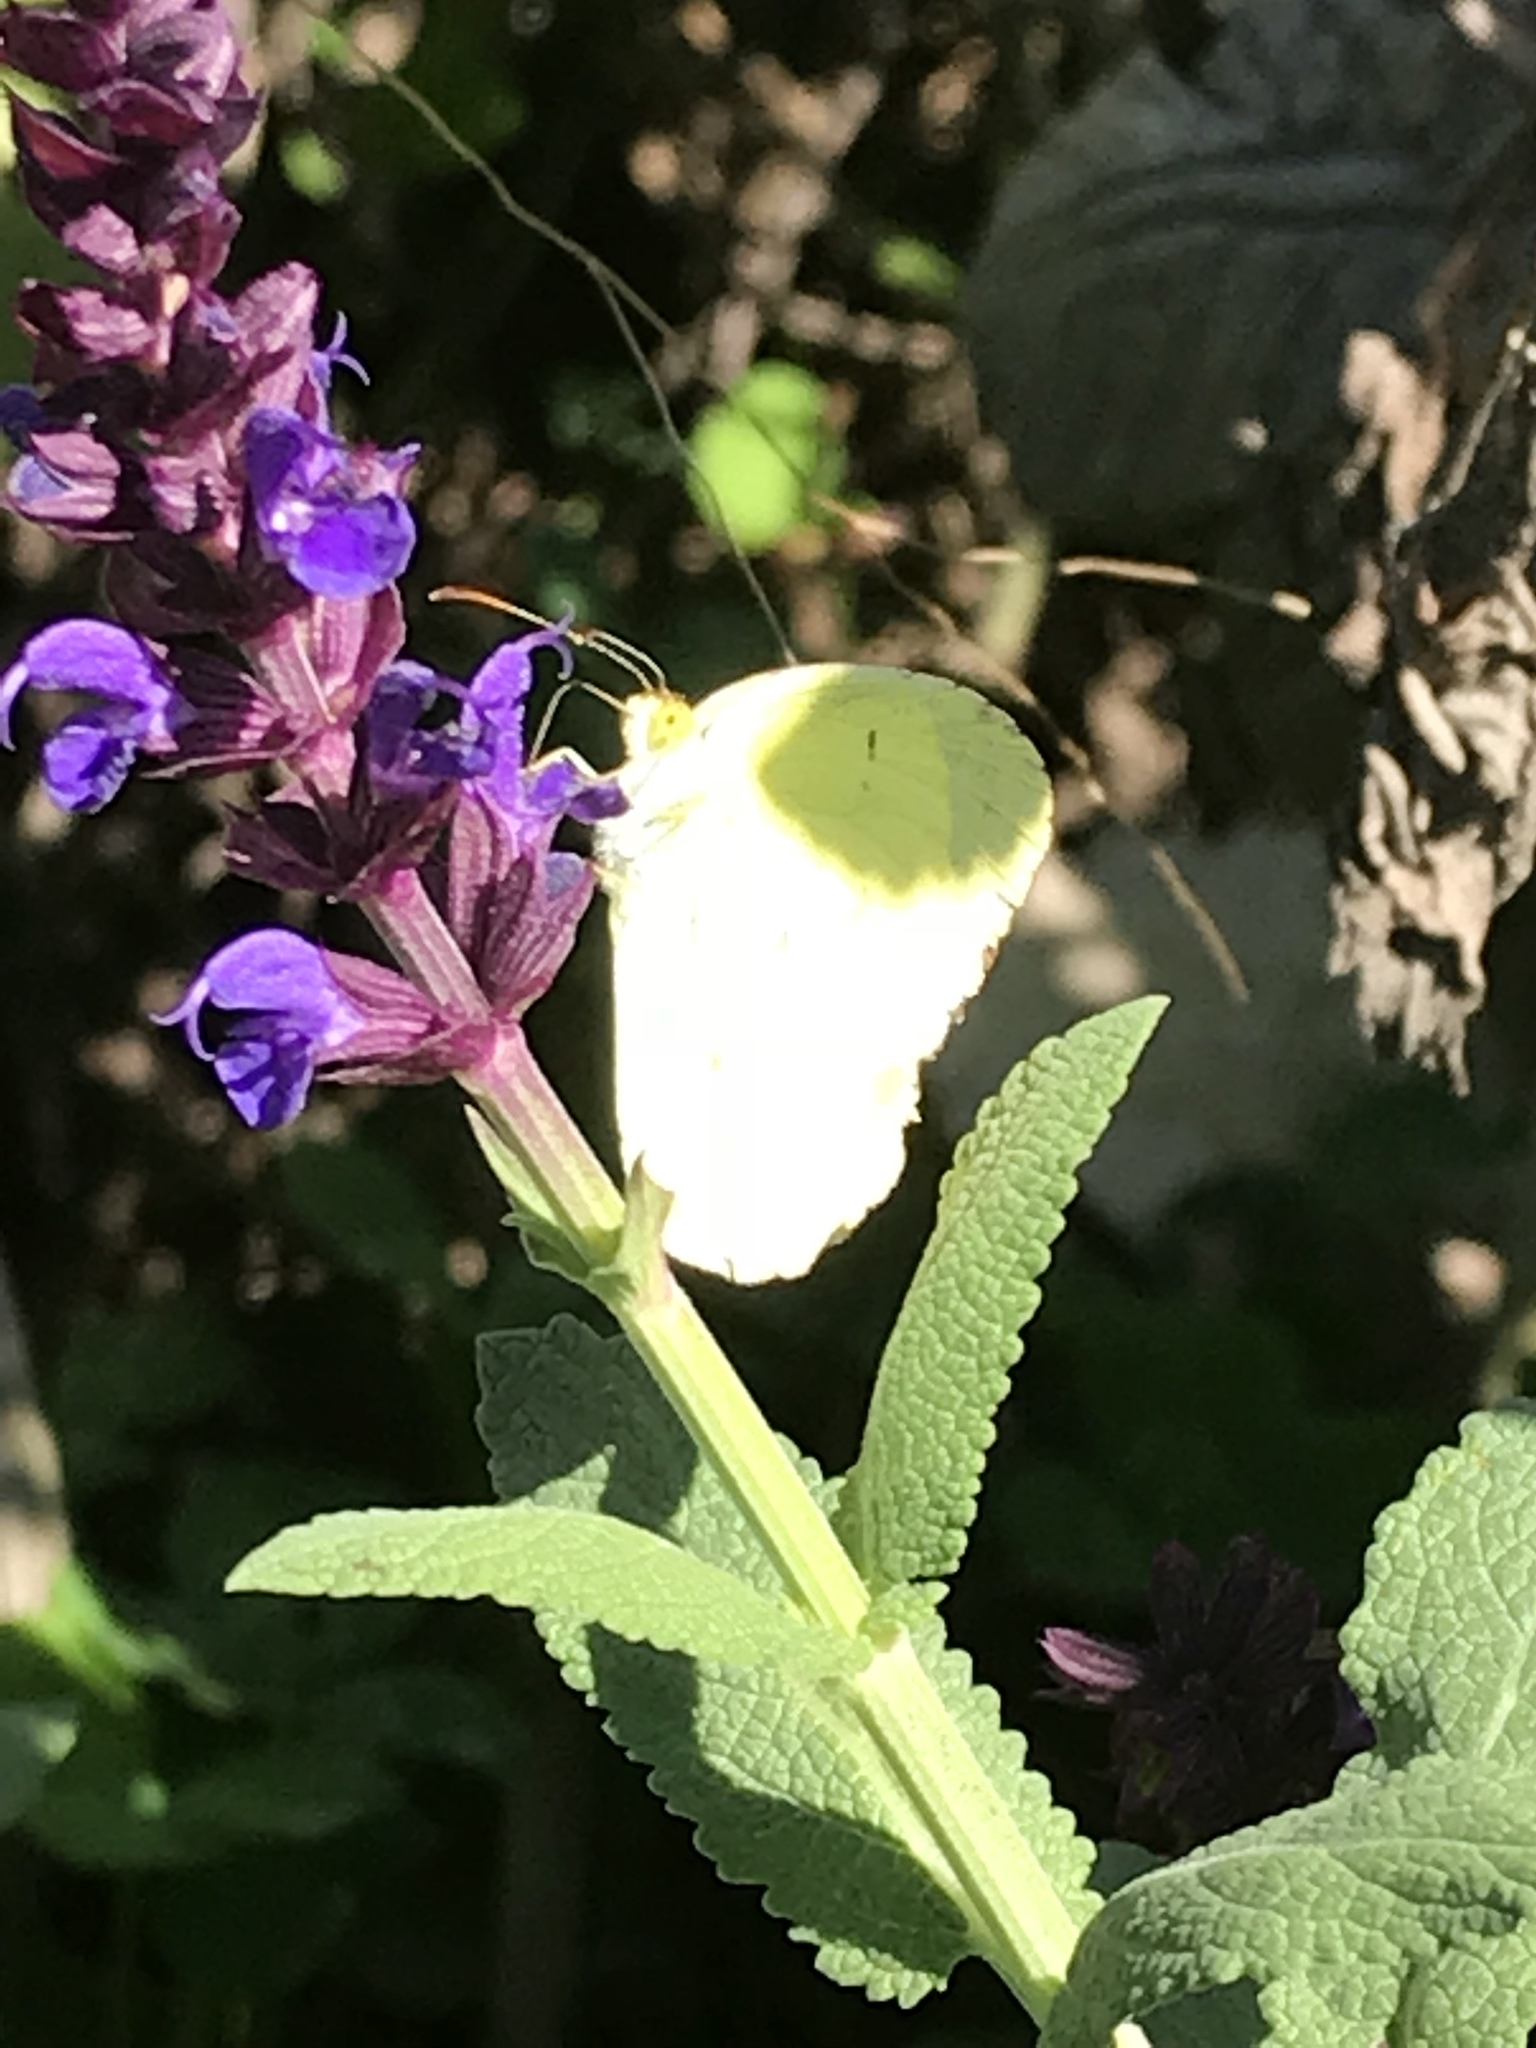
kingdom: Animalia
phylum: Arthropoda
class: Insecta
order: Lepidoptera
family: Pieridae
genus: Pyrisitia
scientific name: Pyrisitia lisa
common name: Little yellow
